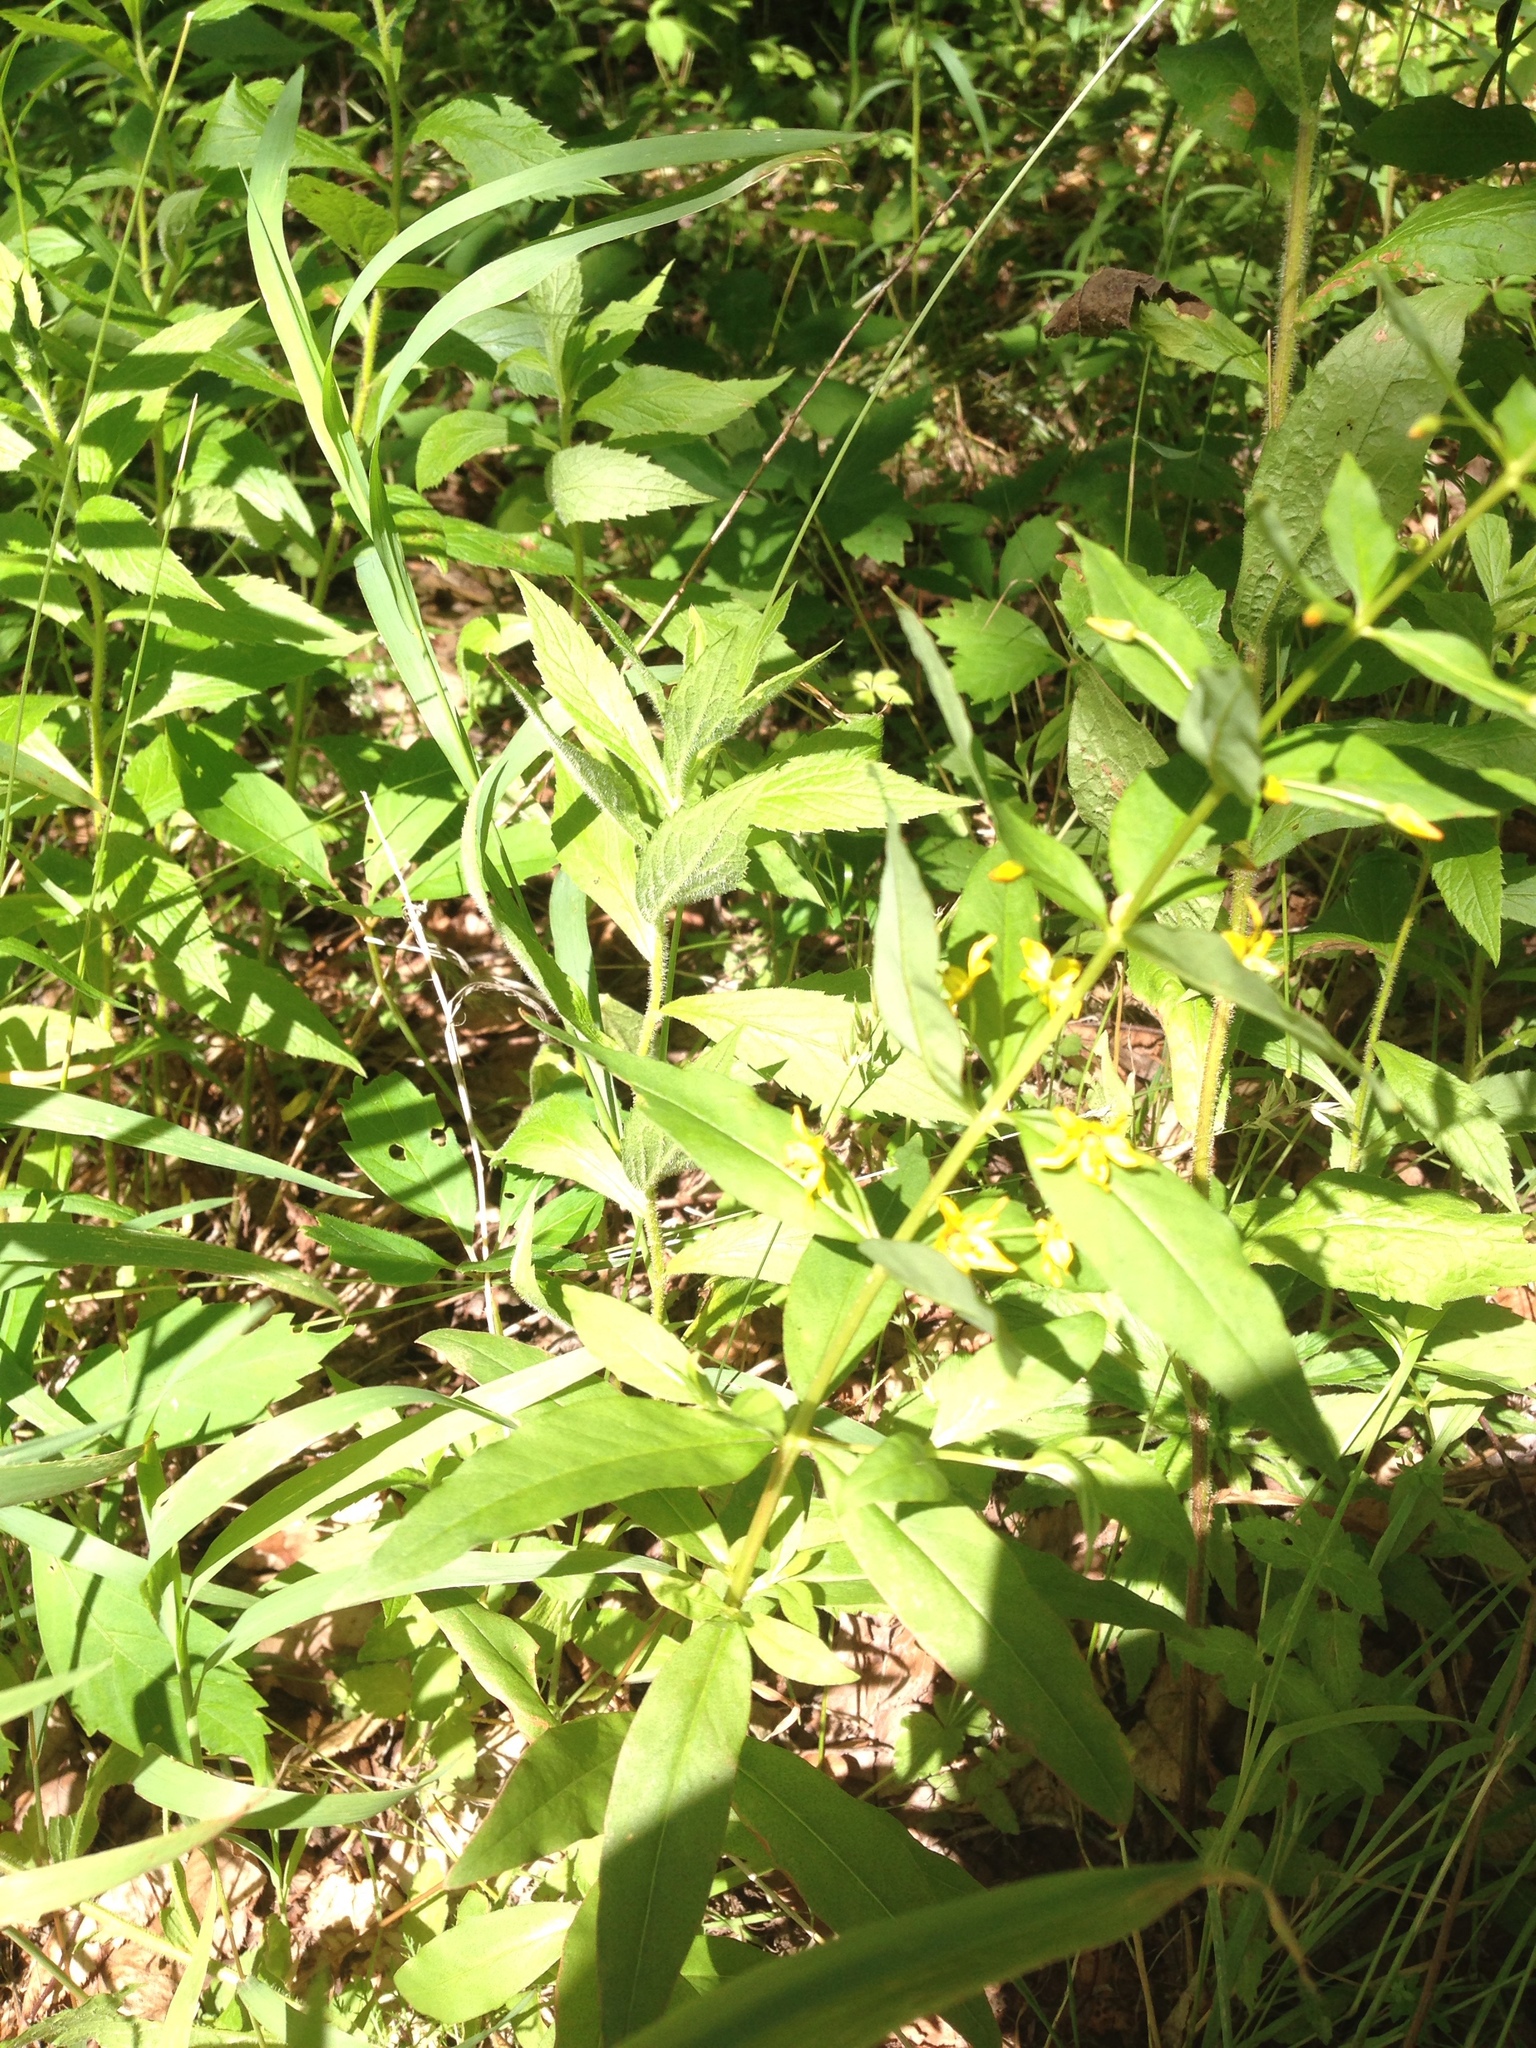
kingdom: Plantae
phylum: Tracheophyta
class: Magnoliopsida
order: Ericales
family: Primulaceae
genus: Lysimachia
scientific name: Lysimachia quadrifolia
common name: Whorled loosestrife
